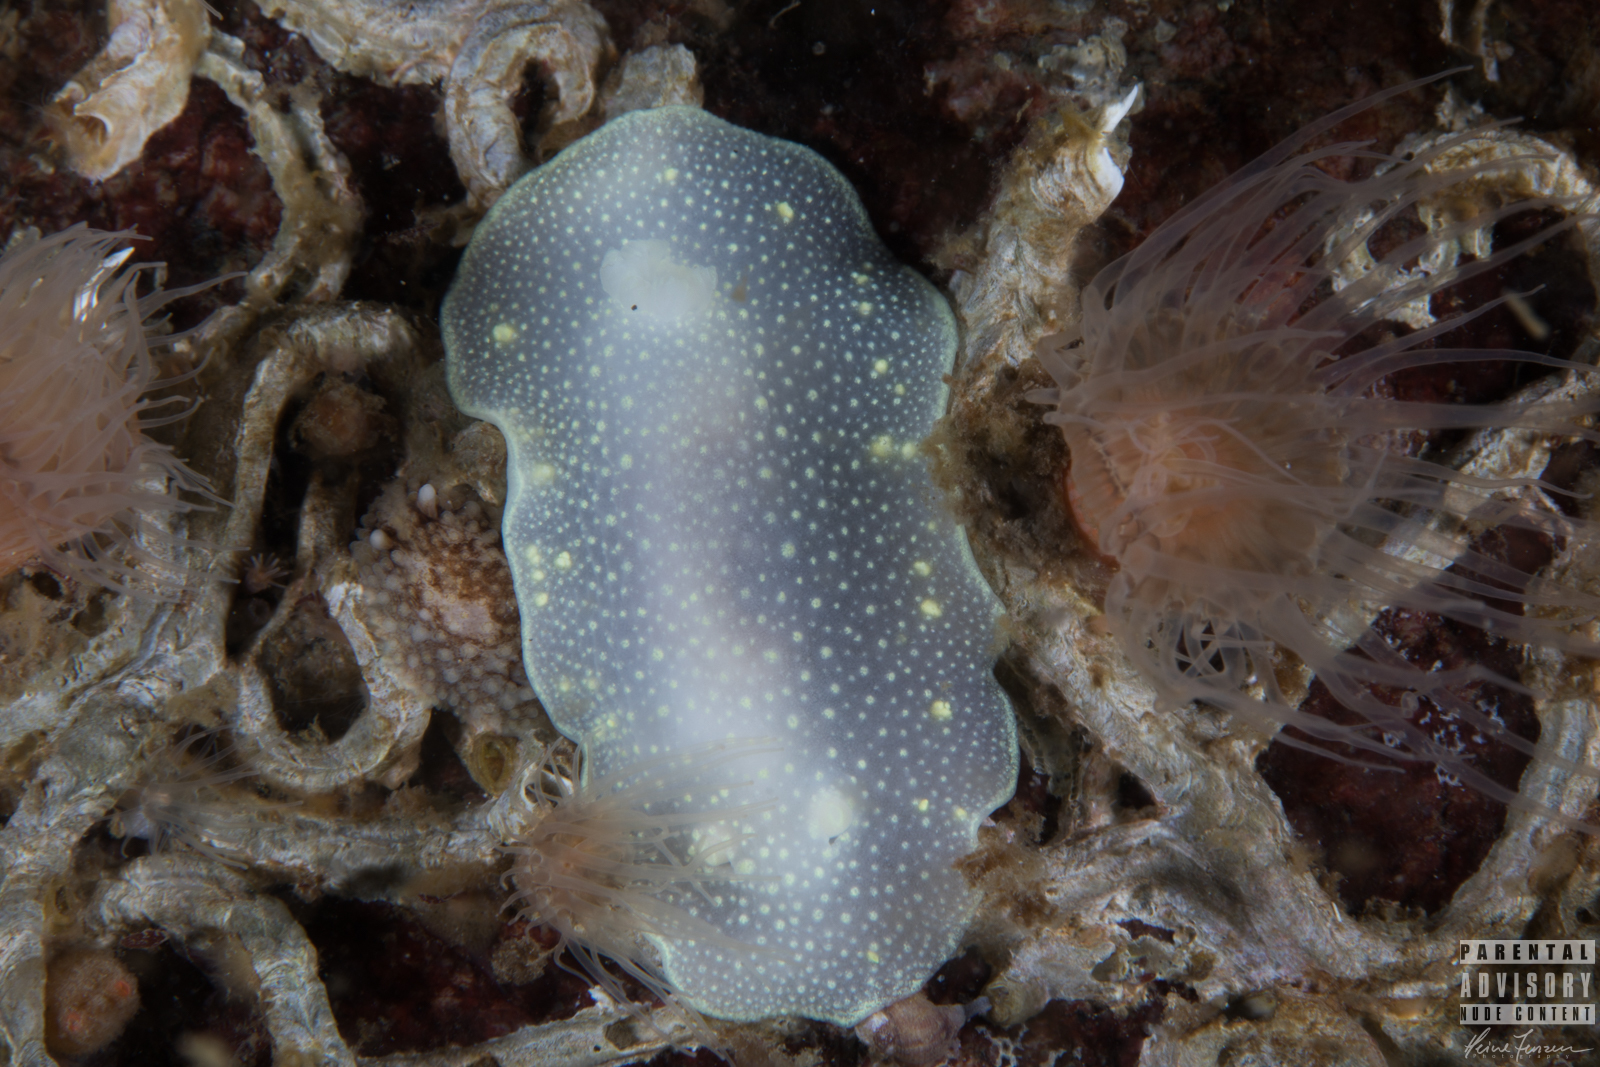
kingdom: Animalia
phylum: Mollusca
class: Gastropoda
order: Nudibranchia
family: Cadlinidae
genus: Cadlina
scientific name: Cadlina laevis
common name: White atlantic cadlina
